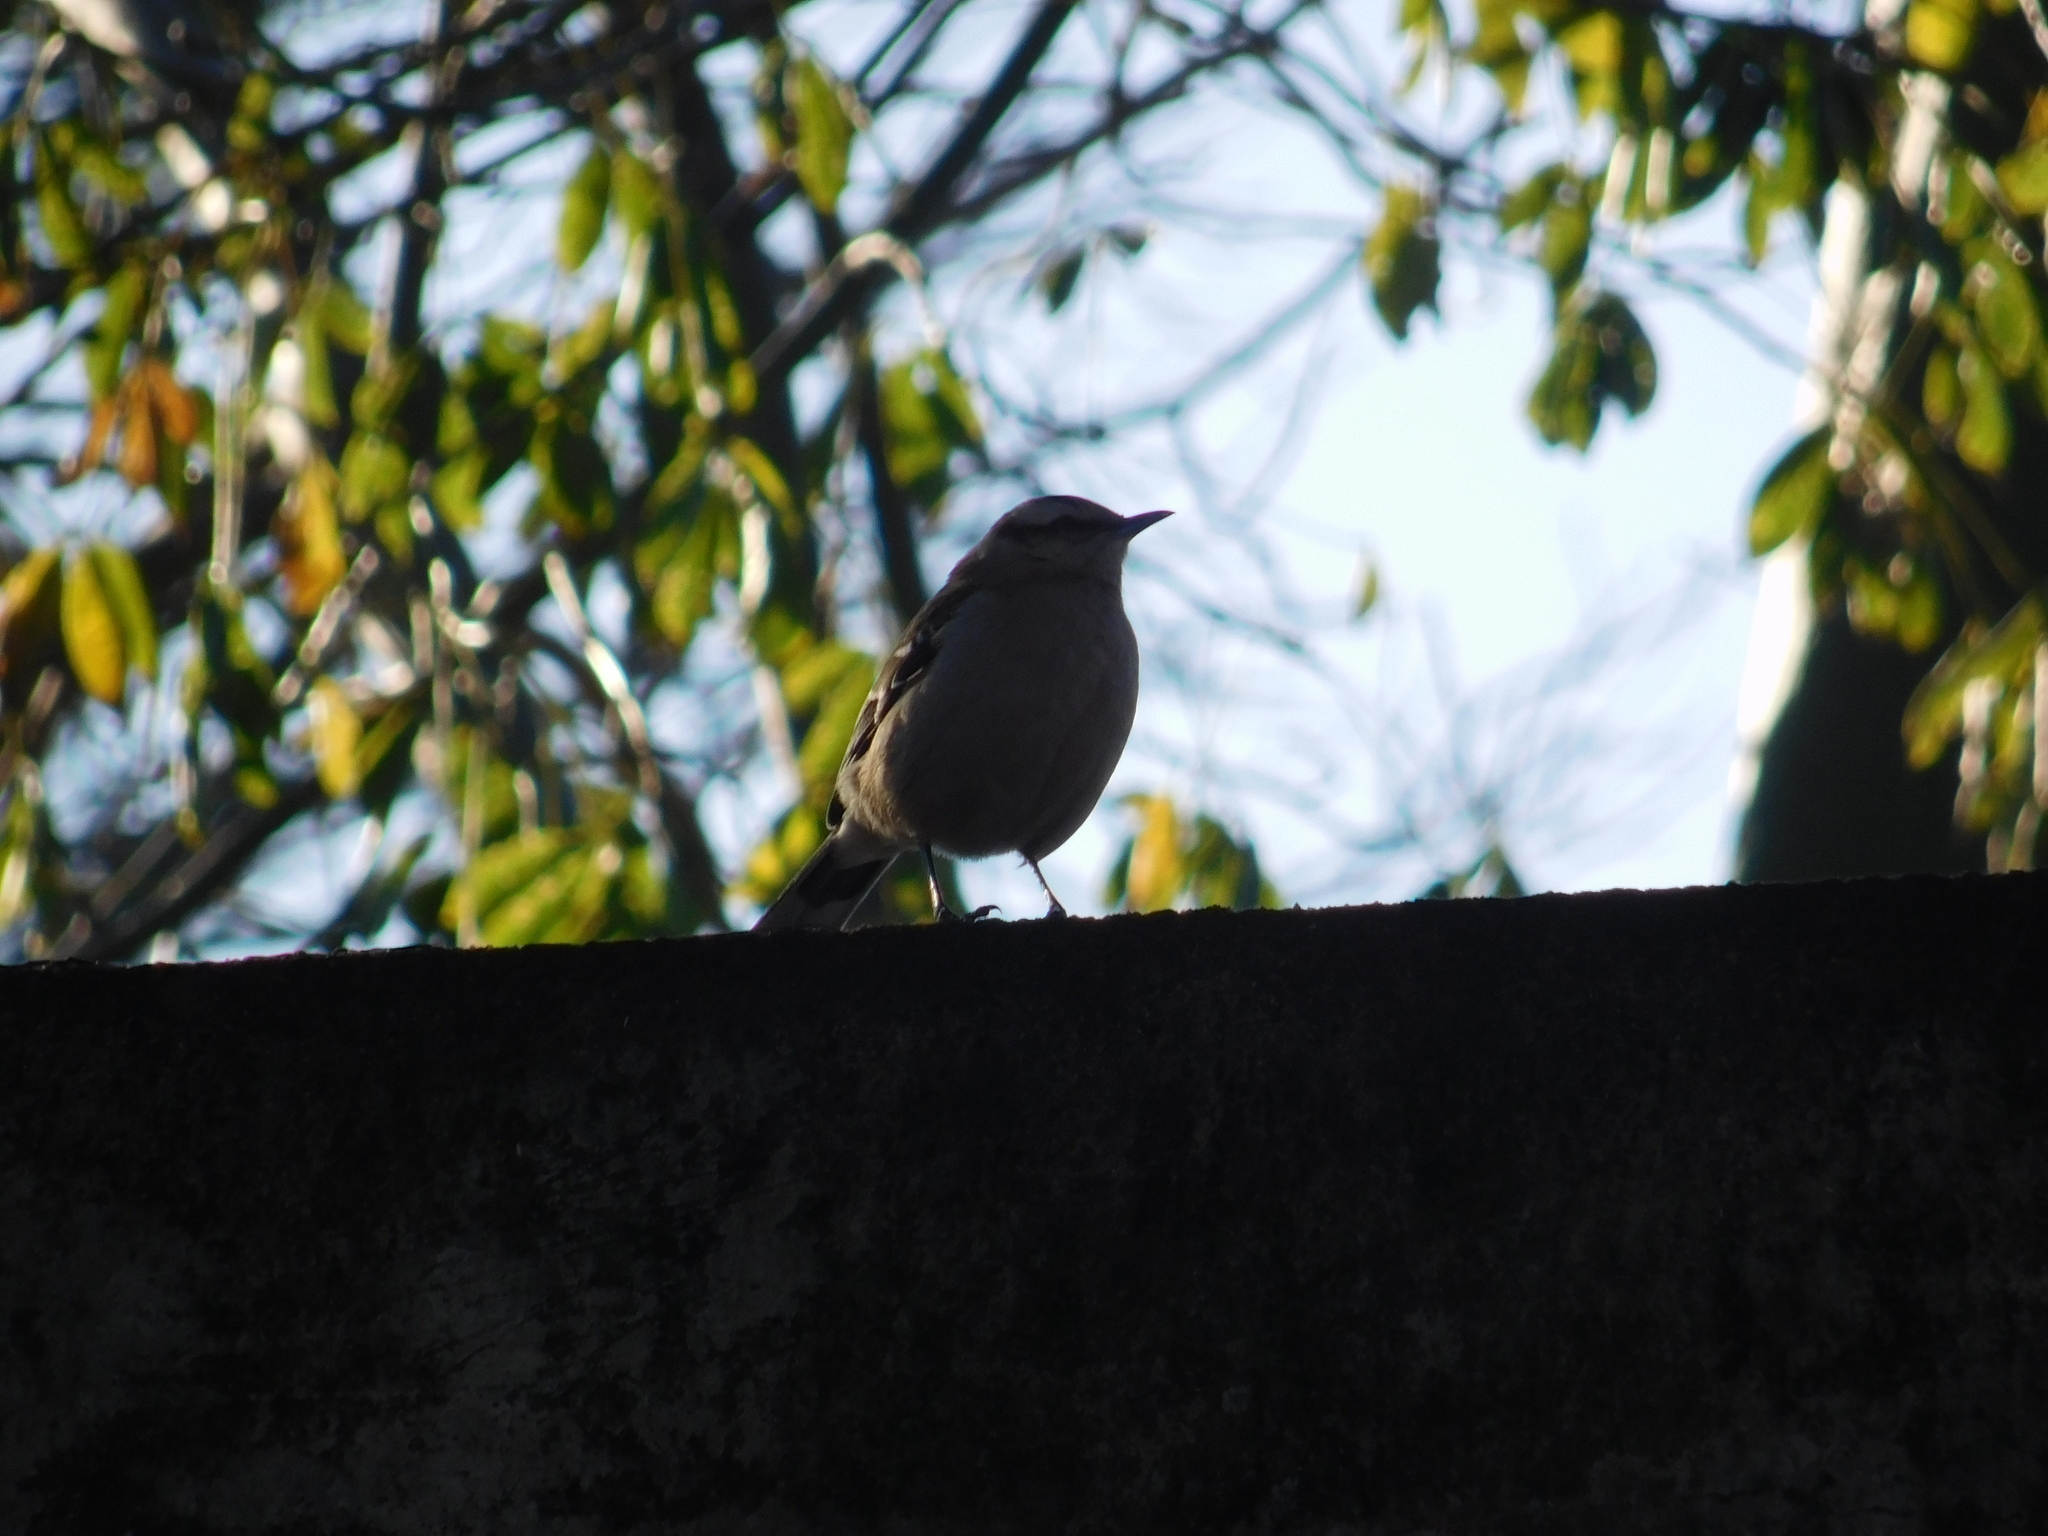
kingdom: Animalia
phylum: Chordata
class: Aves
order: Passeriformes
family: Mimidae
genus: Mimus
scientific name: Mimus saturninus
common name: Chalk-browed mockingbird
